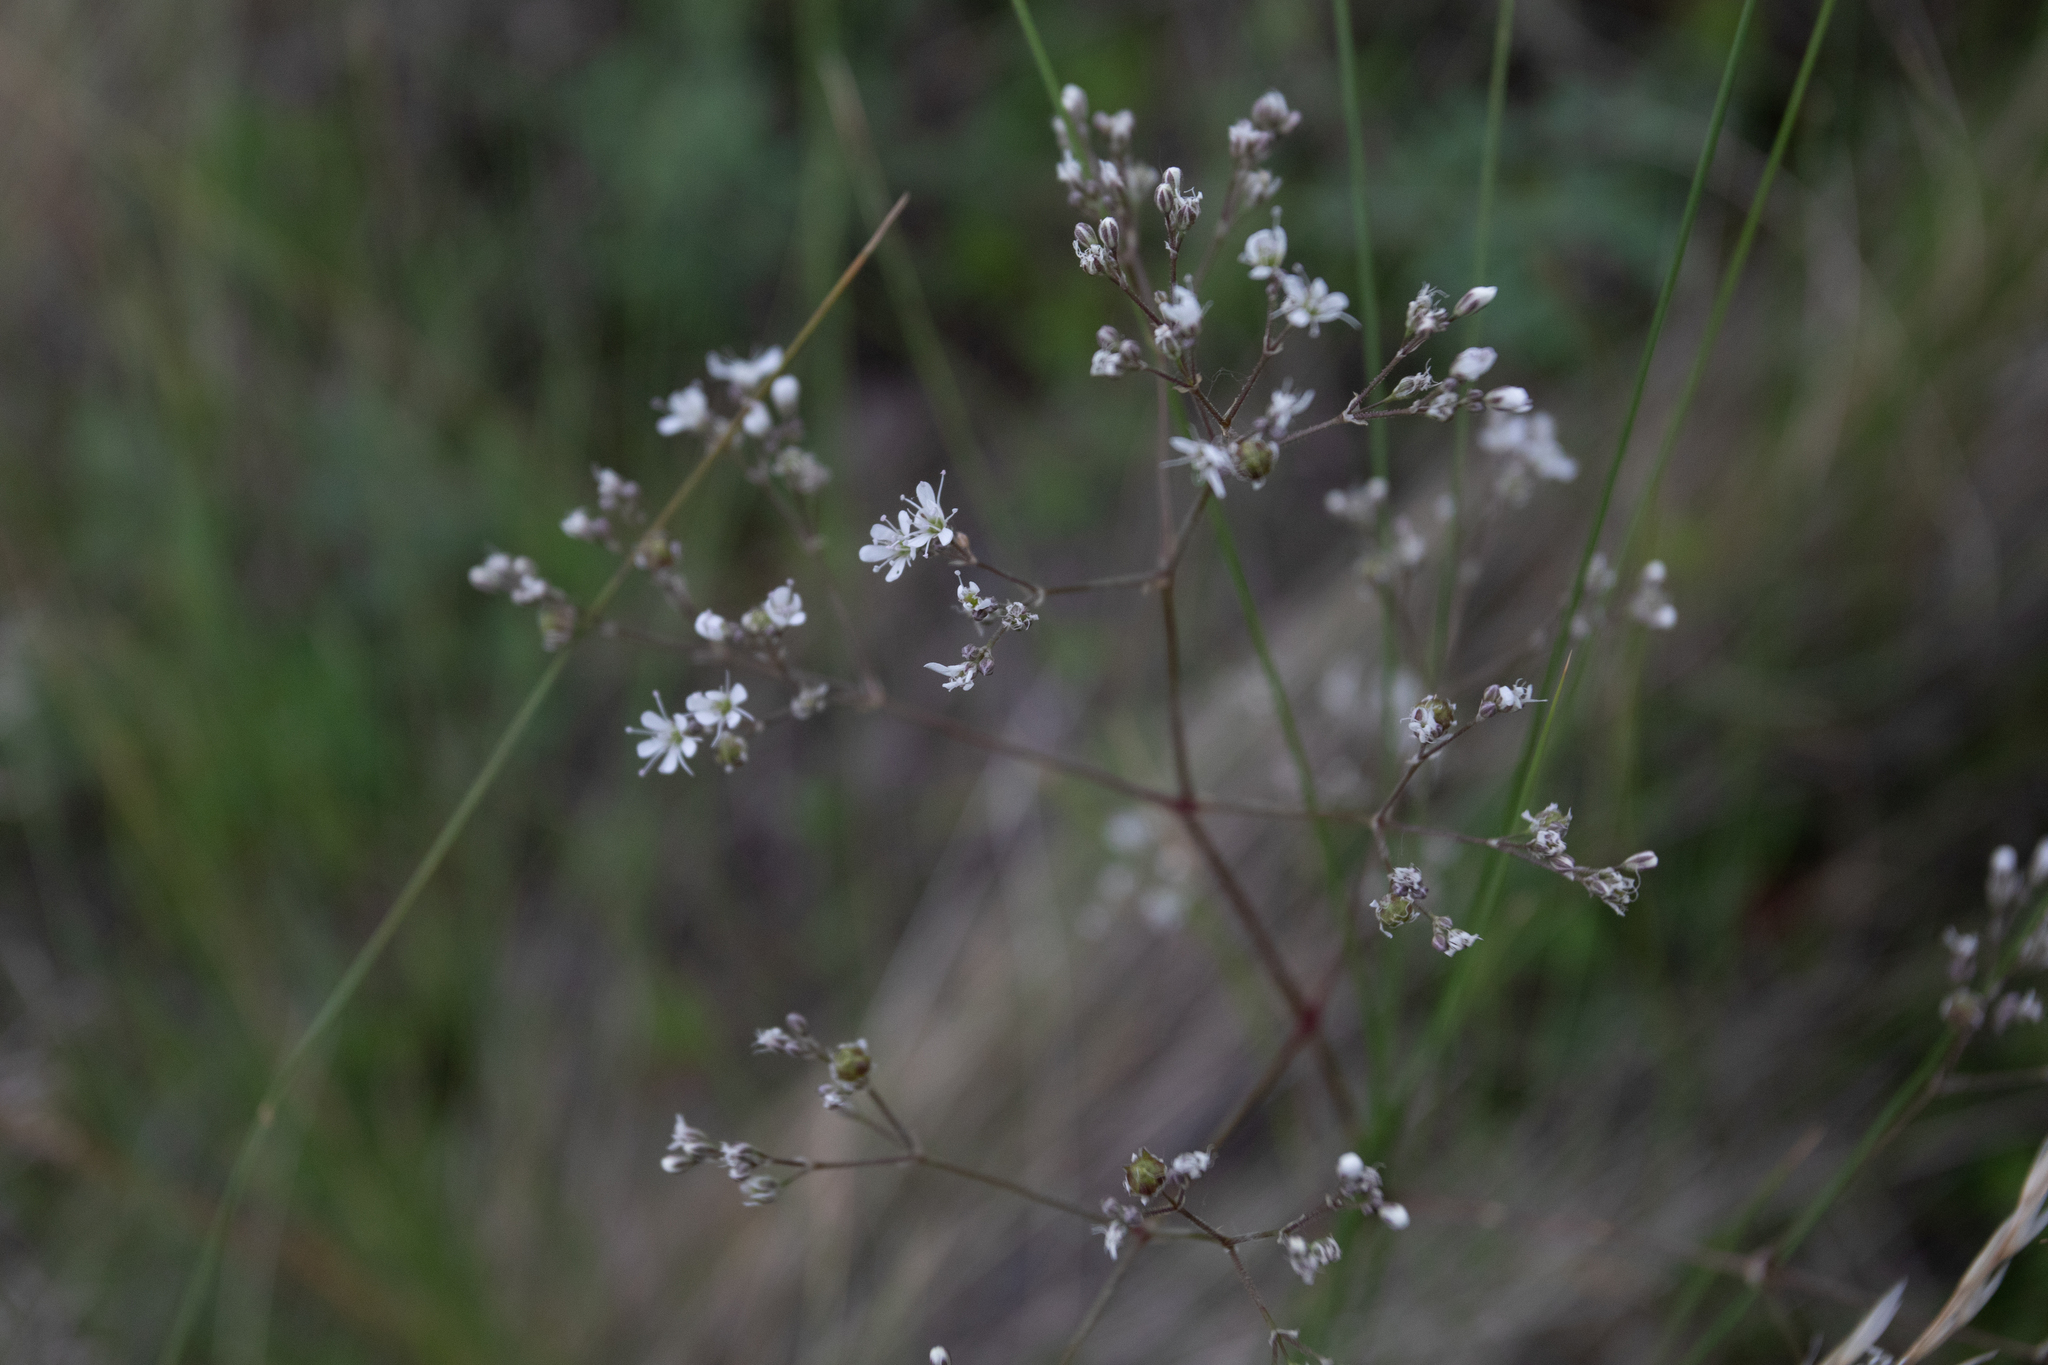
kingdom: Plantae
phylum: Tracheophyta
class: Magnoliopsida
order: Caryophyllales
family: Caryophyllaceae
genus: Gypsophila
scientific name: Gypsophila altissima
